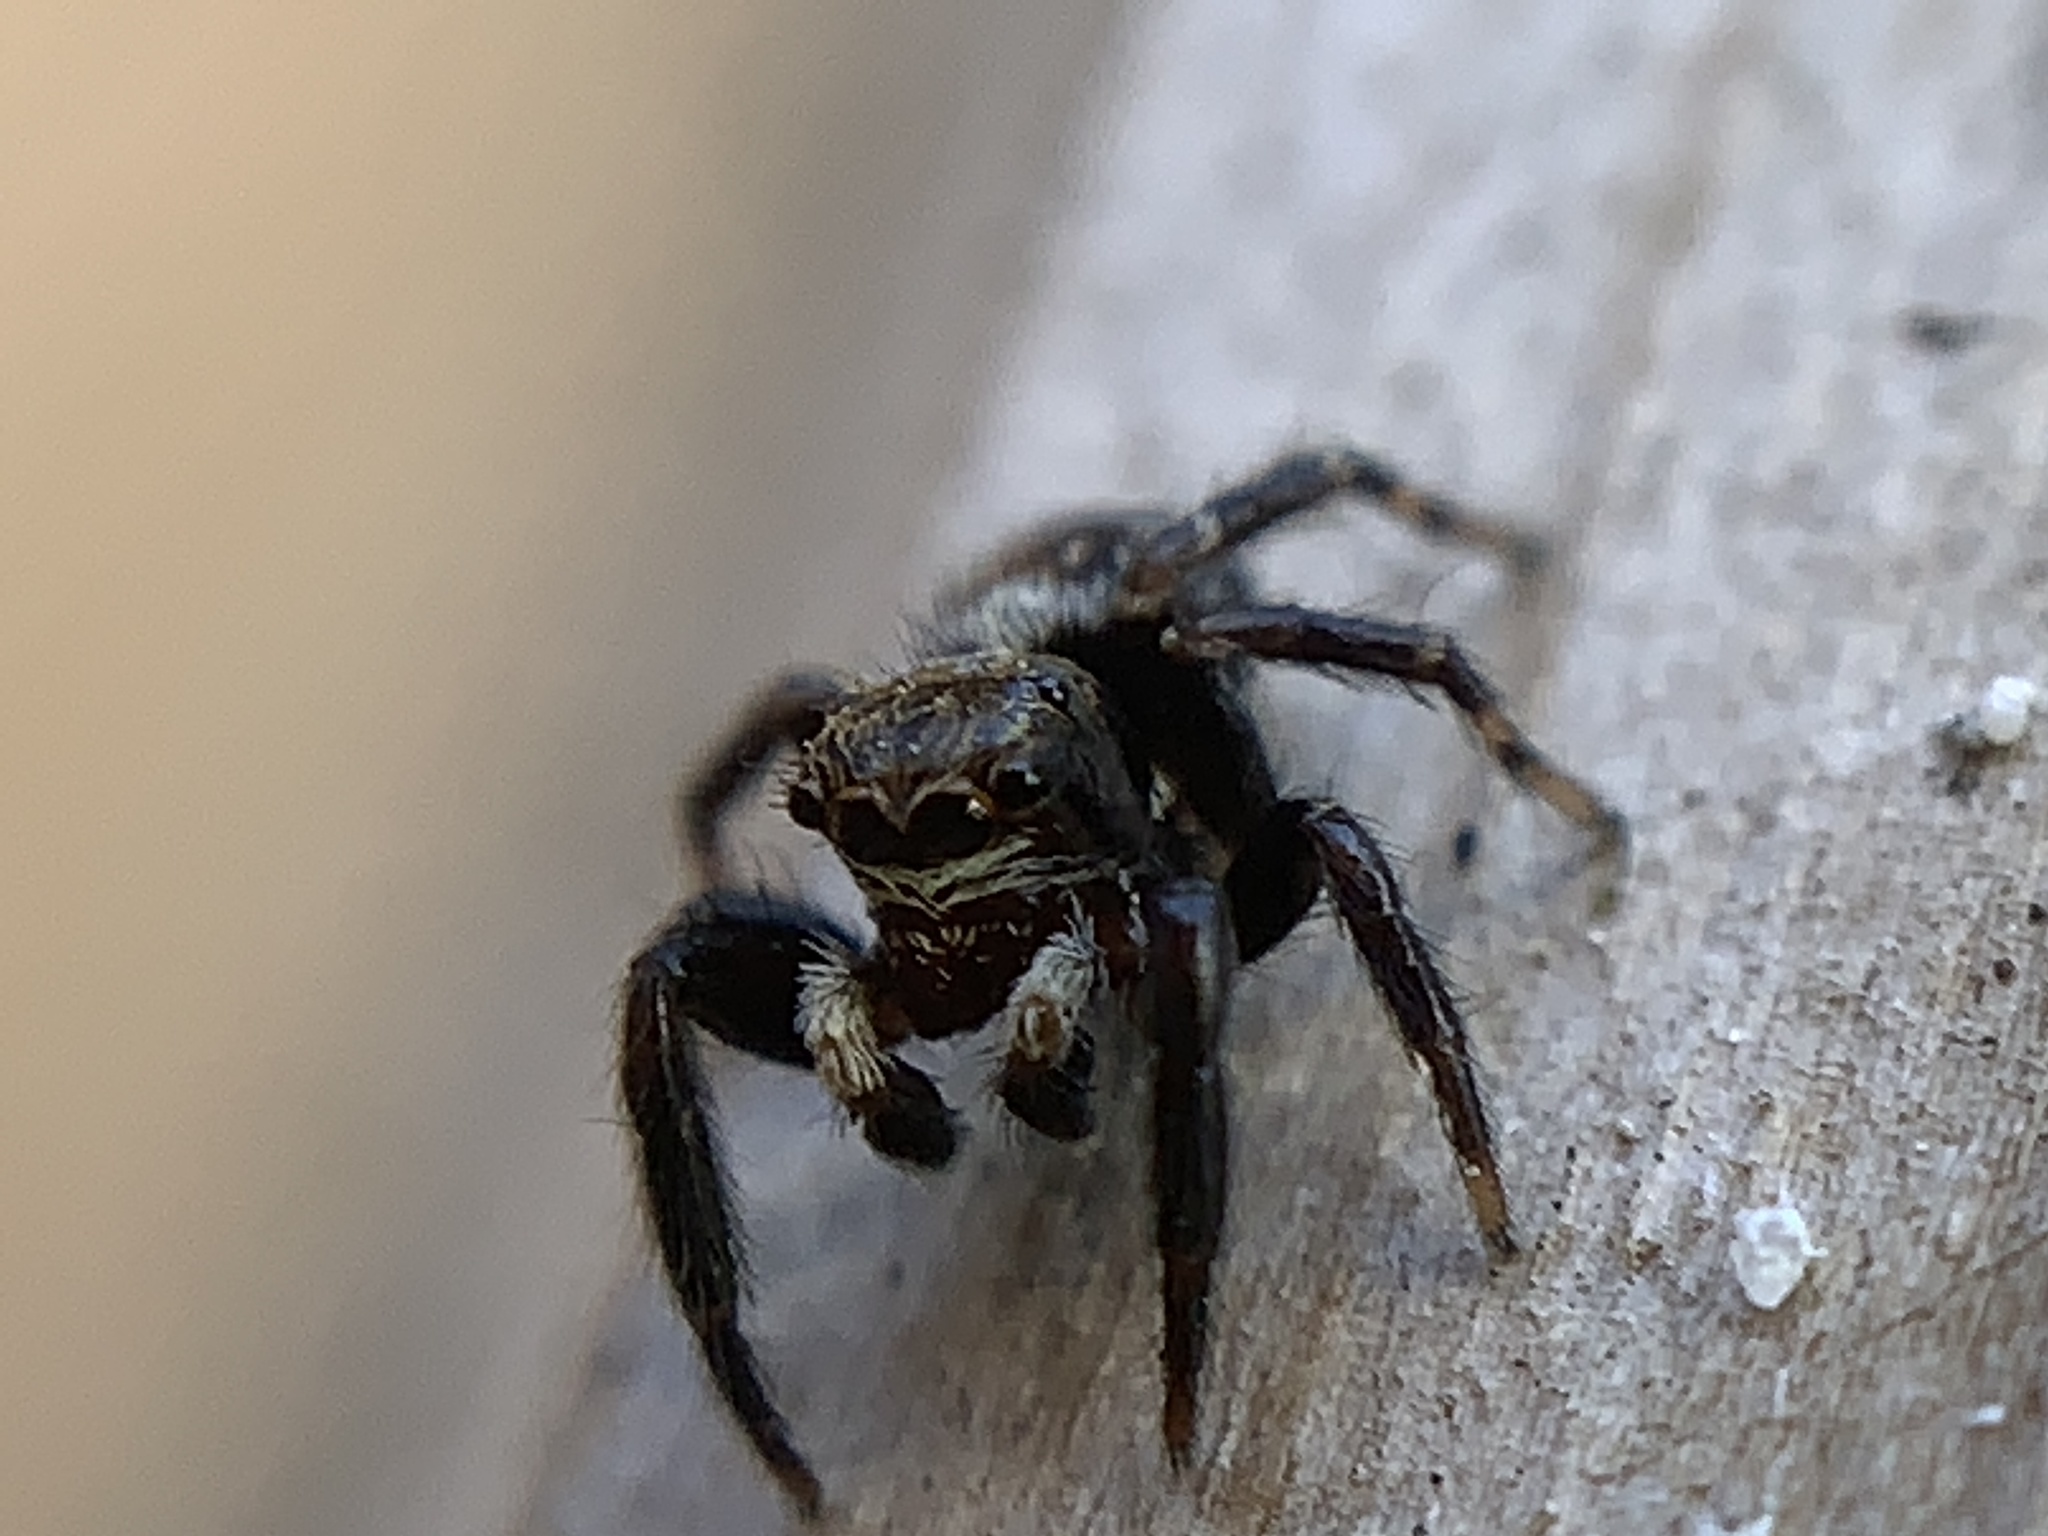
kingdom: Animalia
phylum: Arthropoda
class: Arachnida
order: Araneae
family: Salticidae
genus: Pseudeuophrys
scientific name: Pseudeuophrys erratica
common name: Jumping spider
